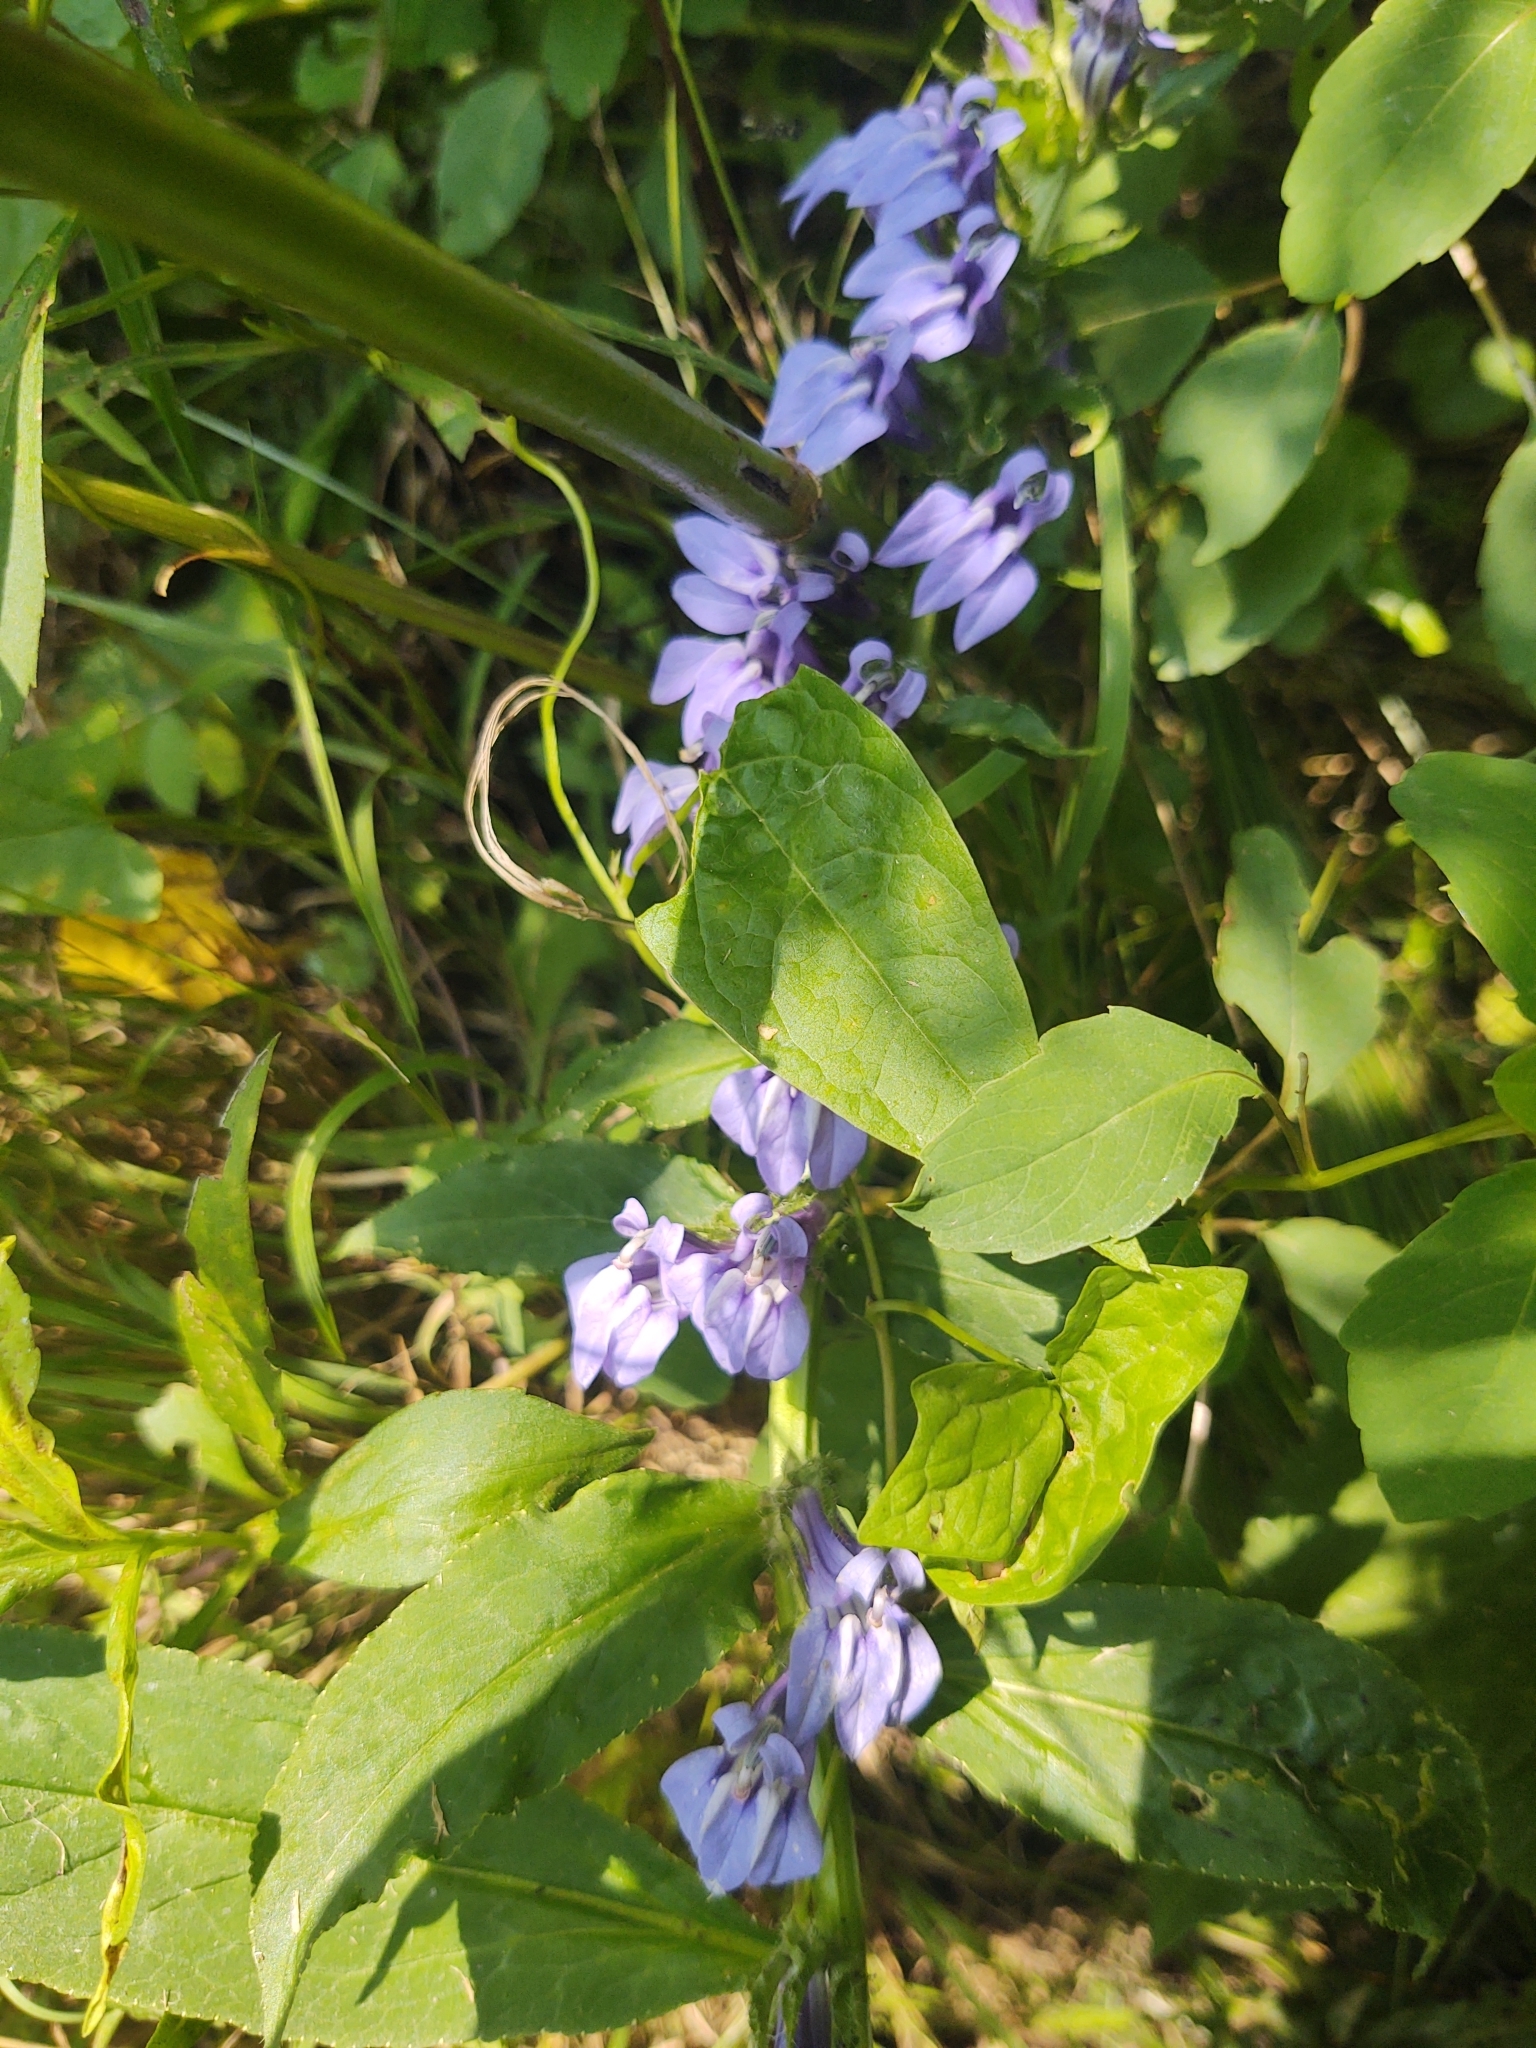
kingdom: Plantae
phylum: Tracheophyta
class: Magnoliopsida
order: Asterales
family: Campanulaceae
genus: Lobelia
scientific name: Lobelia siphilitica
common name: Great lobelia
